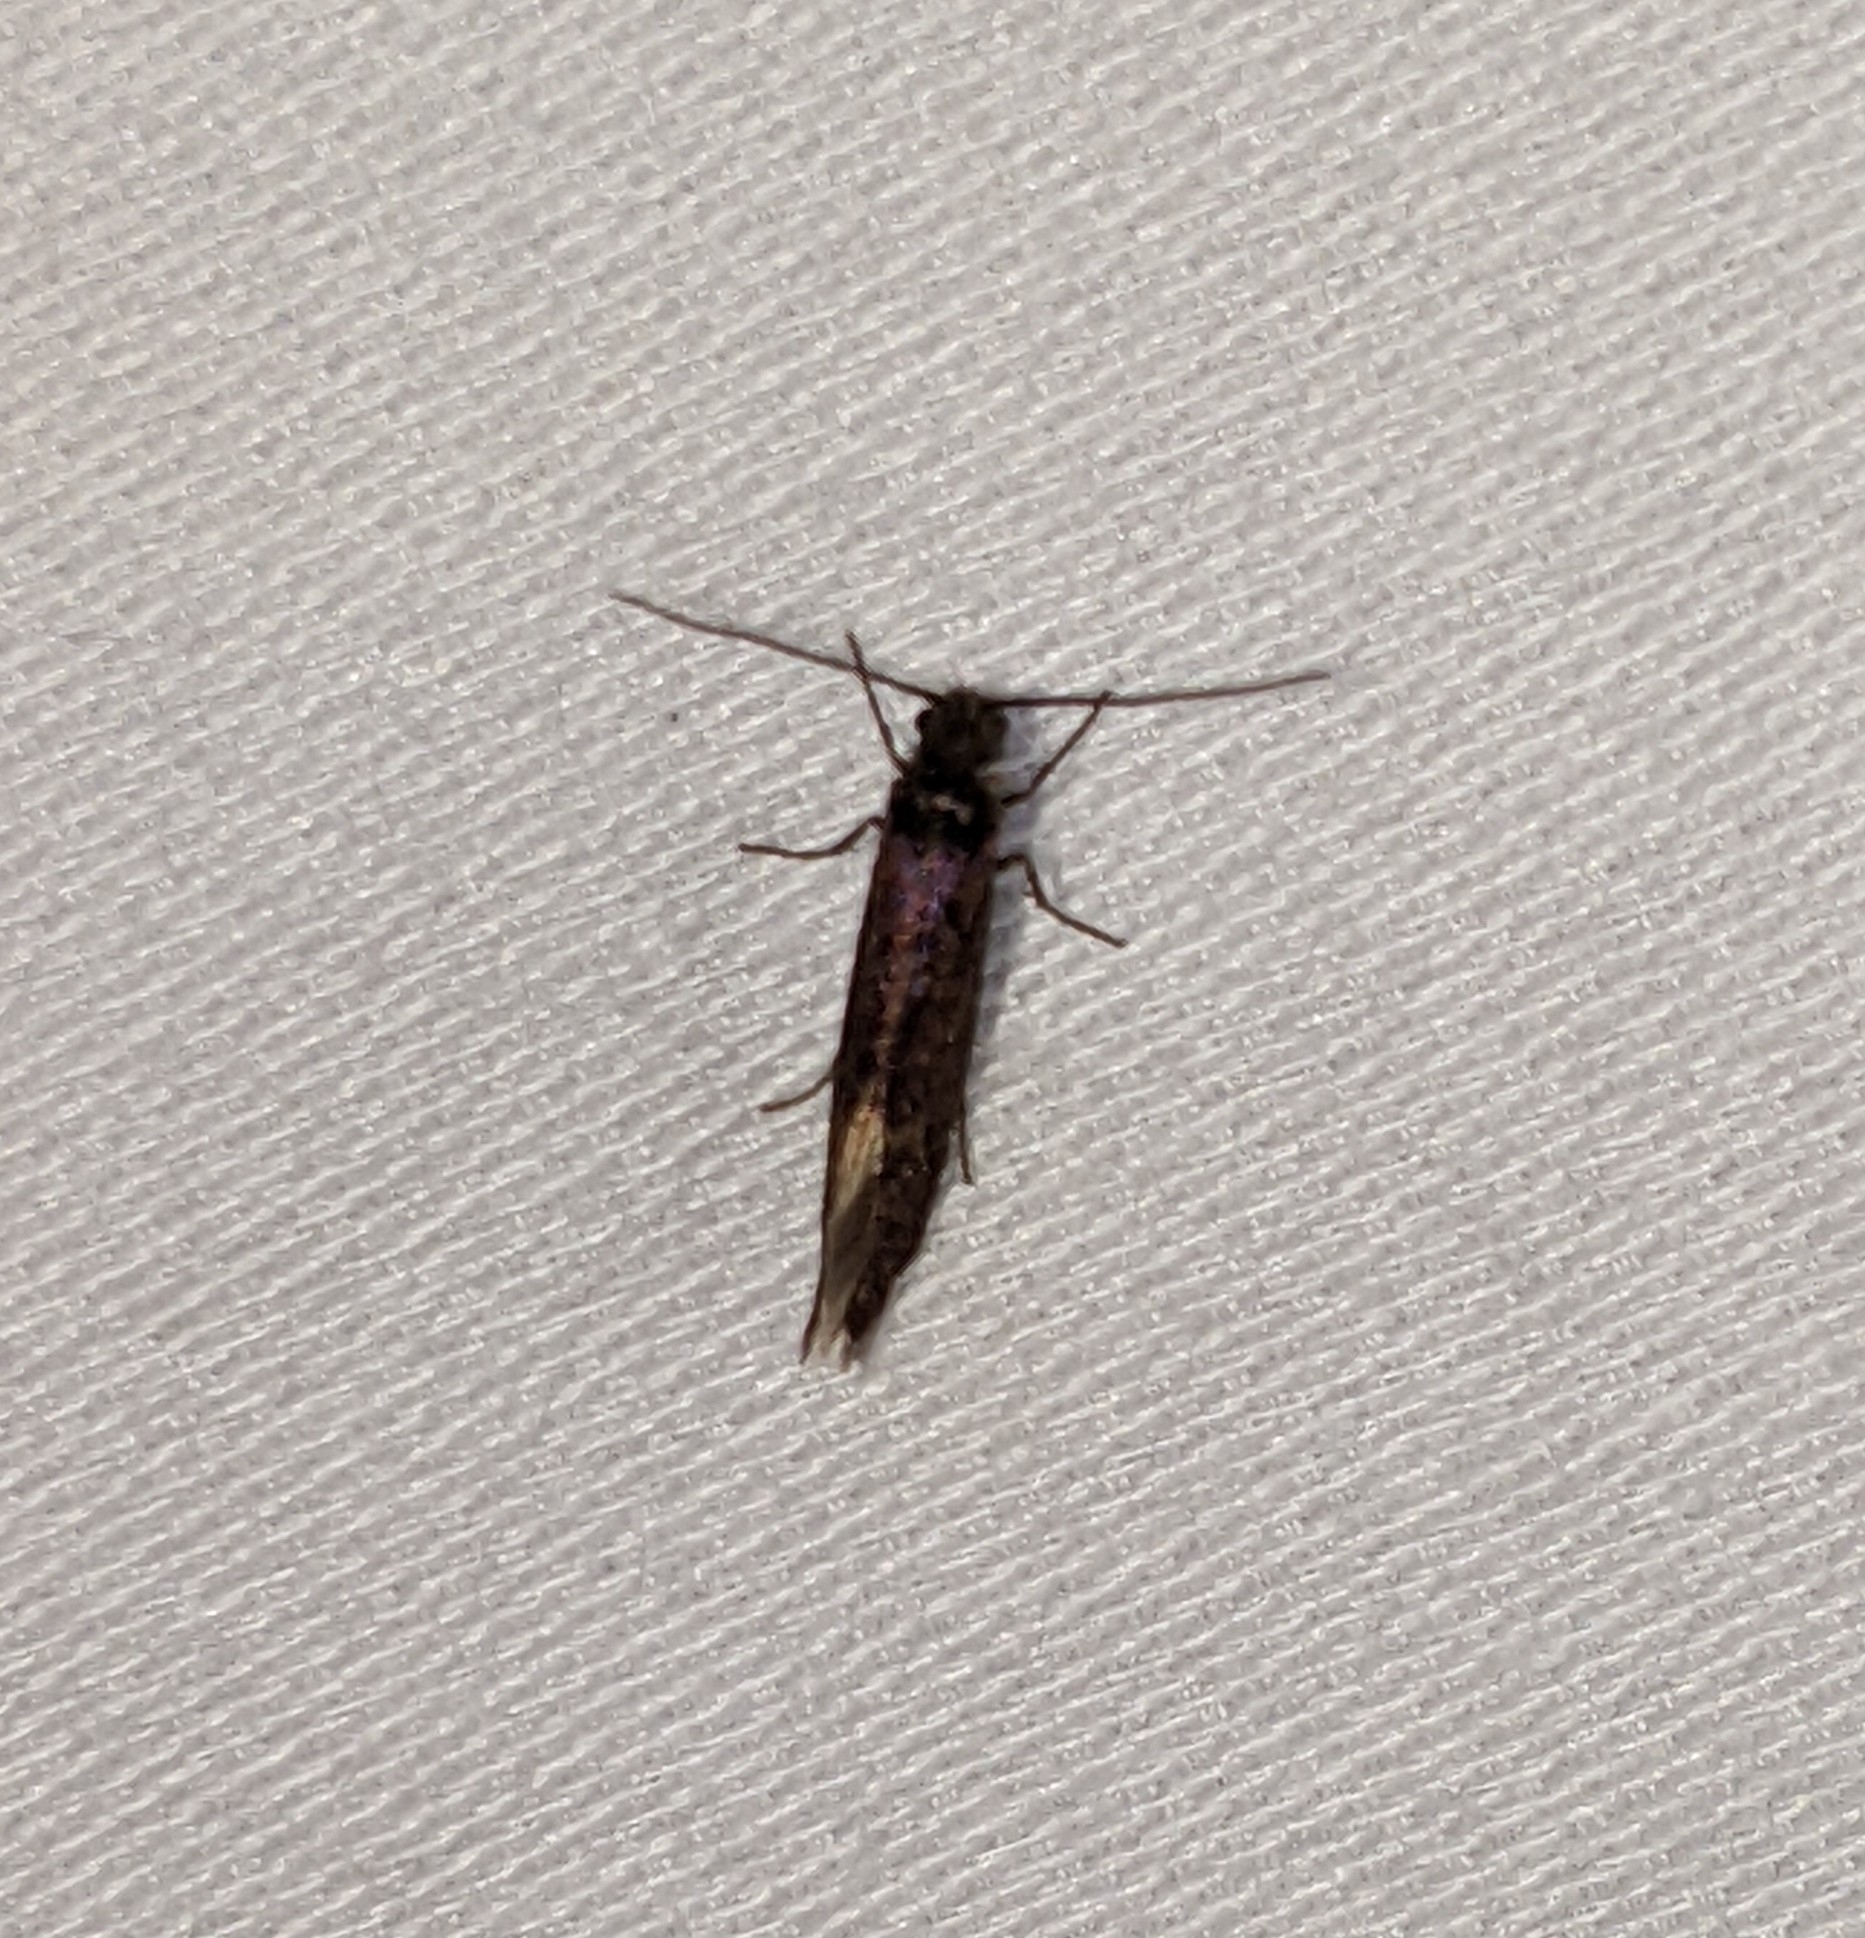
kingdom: Animalia
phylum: Arthropoda
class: Insecta
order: Lepidoptera
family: Eriocraniidae
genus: Eriocrania
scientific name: Eriocrania semipurpurella
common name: Early purple
